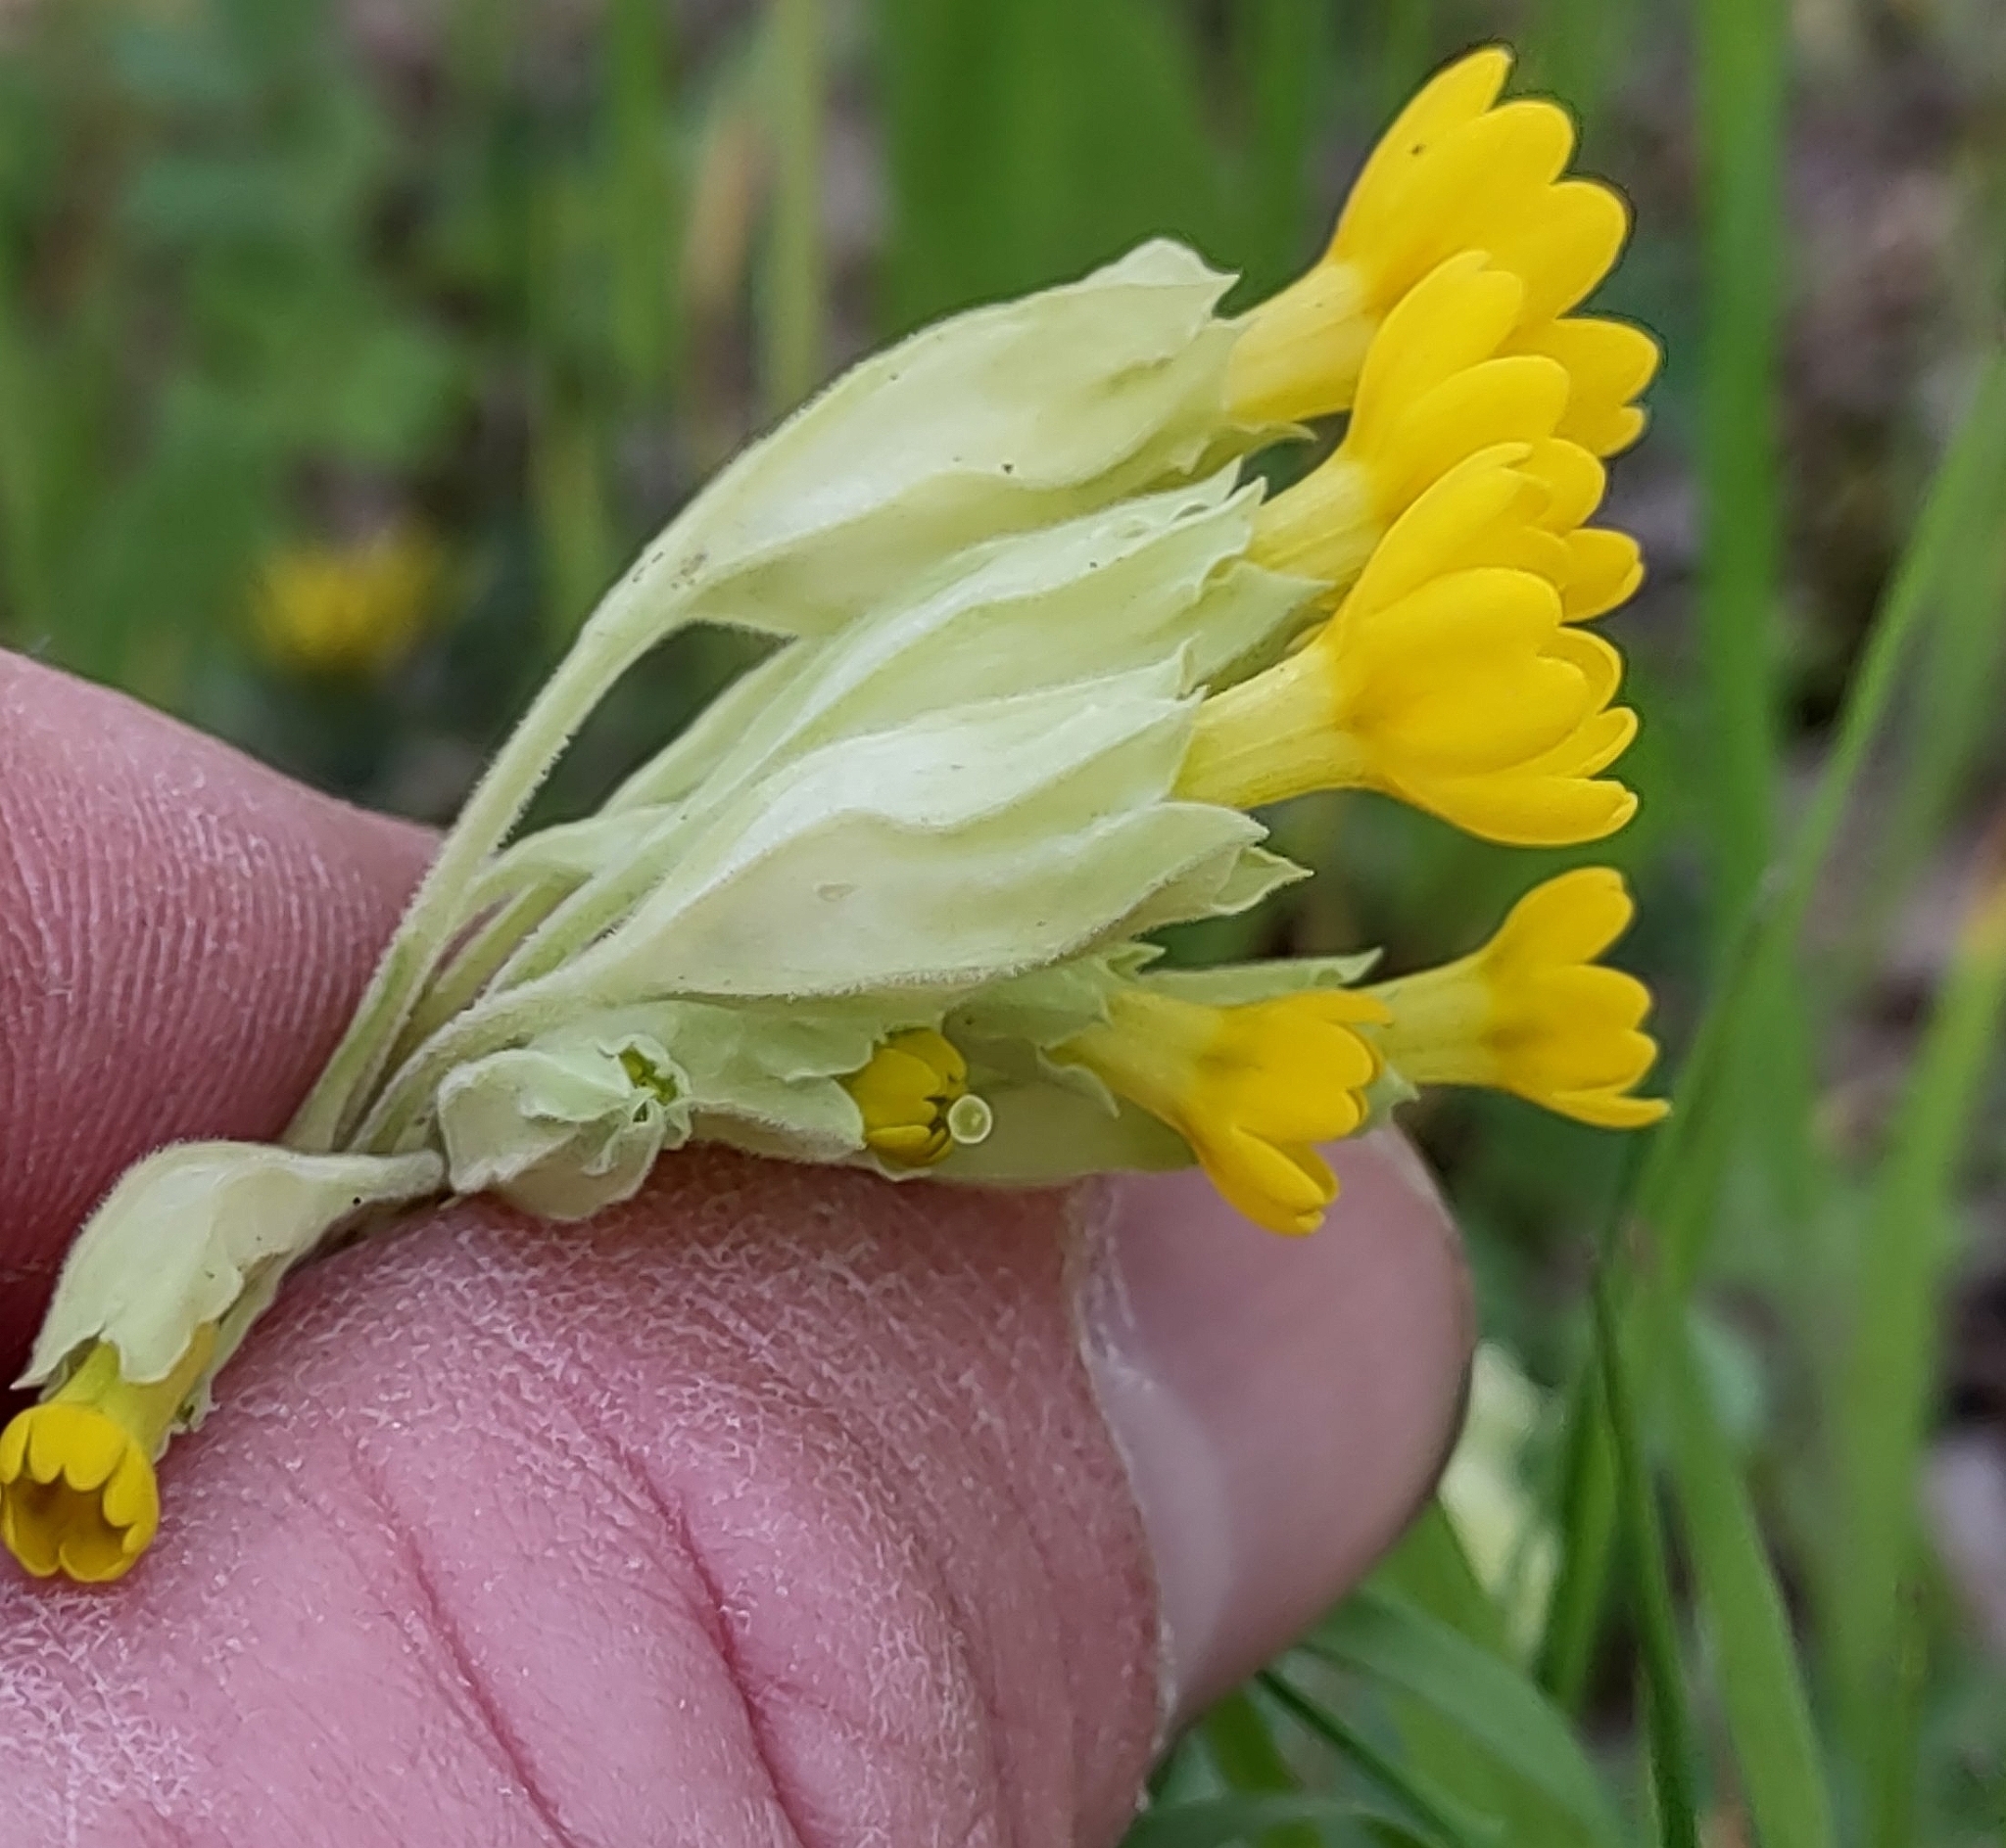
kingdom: Plantae
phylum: Tracheophyta
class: Magnoliopsida
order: Ericales
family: Primulaceae
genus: Primula
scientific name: Primula veris
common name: Cowslip
